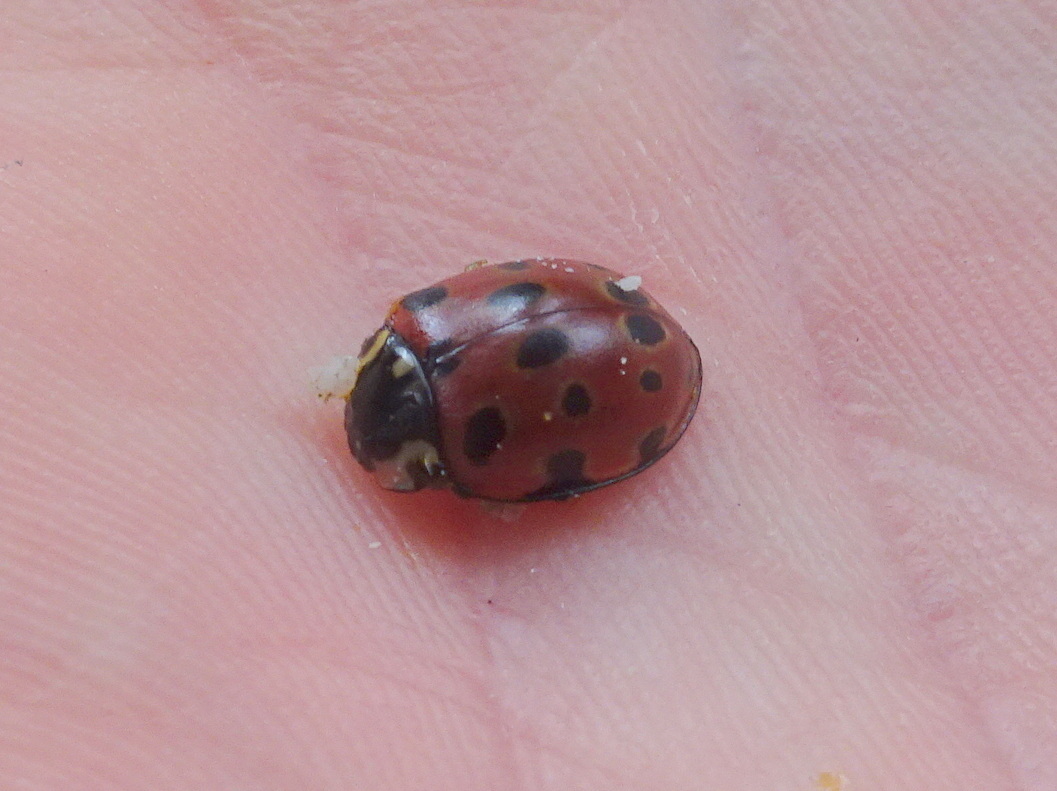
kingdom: Animalia
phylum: Arthropoda
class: Insecta
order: Coleoptera
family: Coccinellidae
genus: Anatis
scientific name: Anatis ocellata
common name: Eyed ladybird
